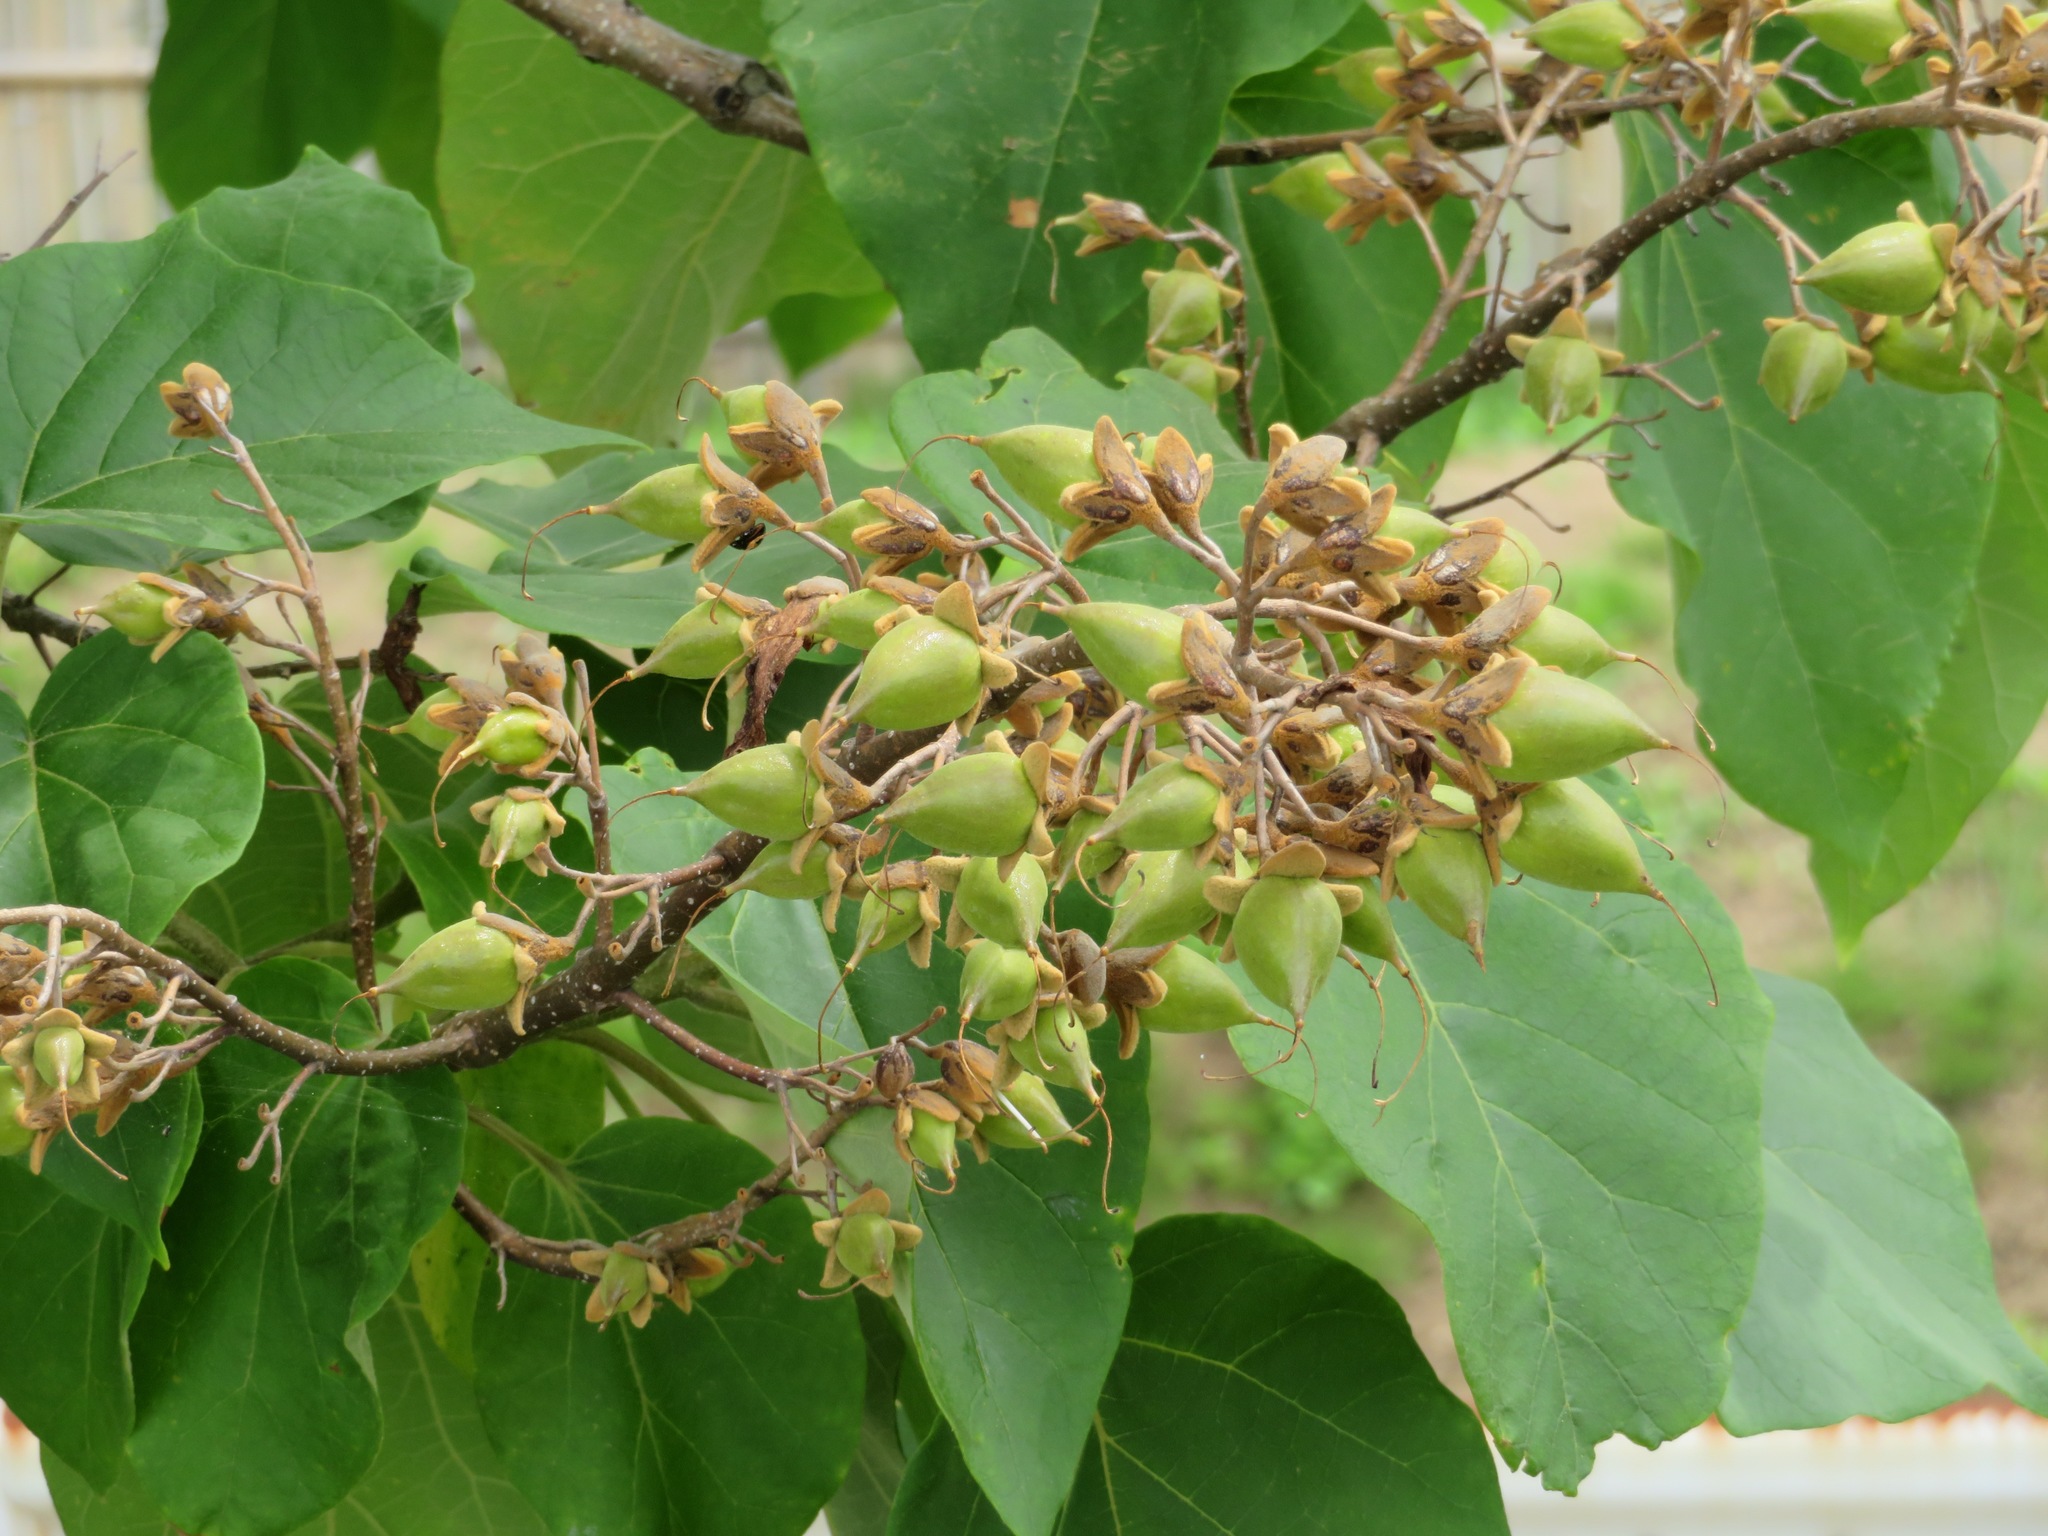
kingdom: Plantae
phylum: Tracheophyta
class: Magnoliopsida
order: Lamiales
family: Paulowniaceae
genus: Paulownia
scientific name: Paulownia tomentosa
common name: Foxglove-tree
